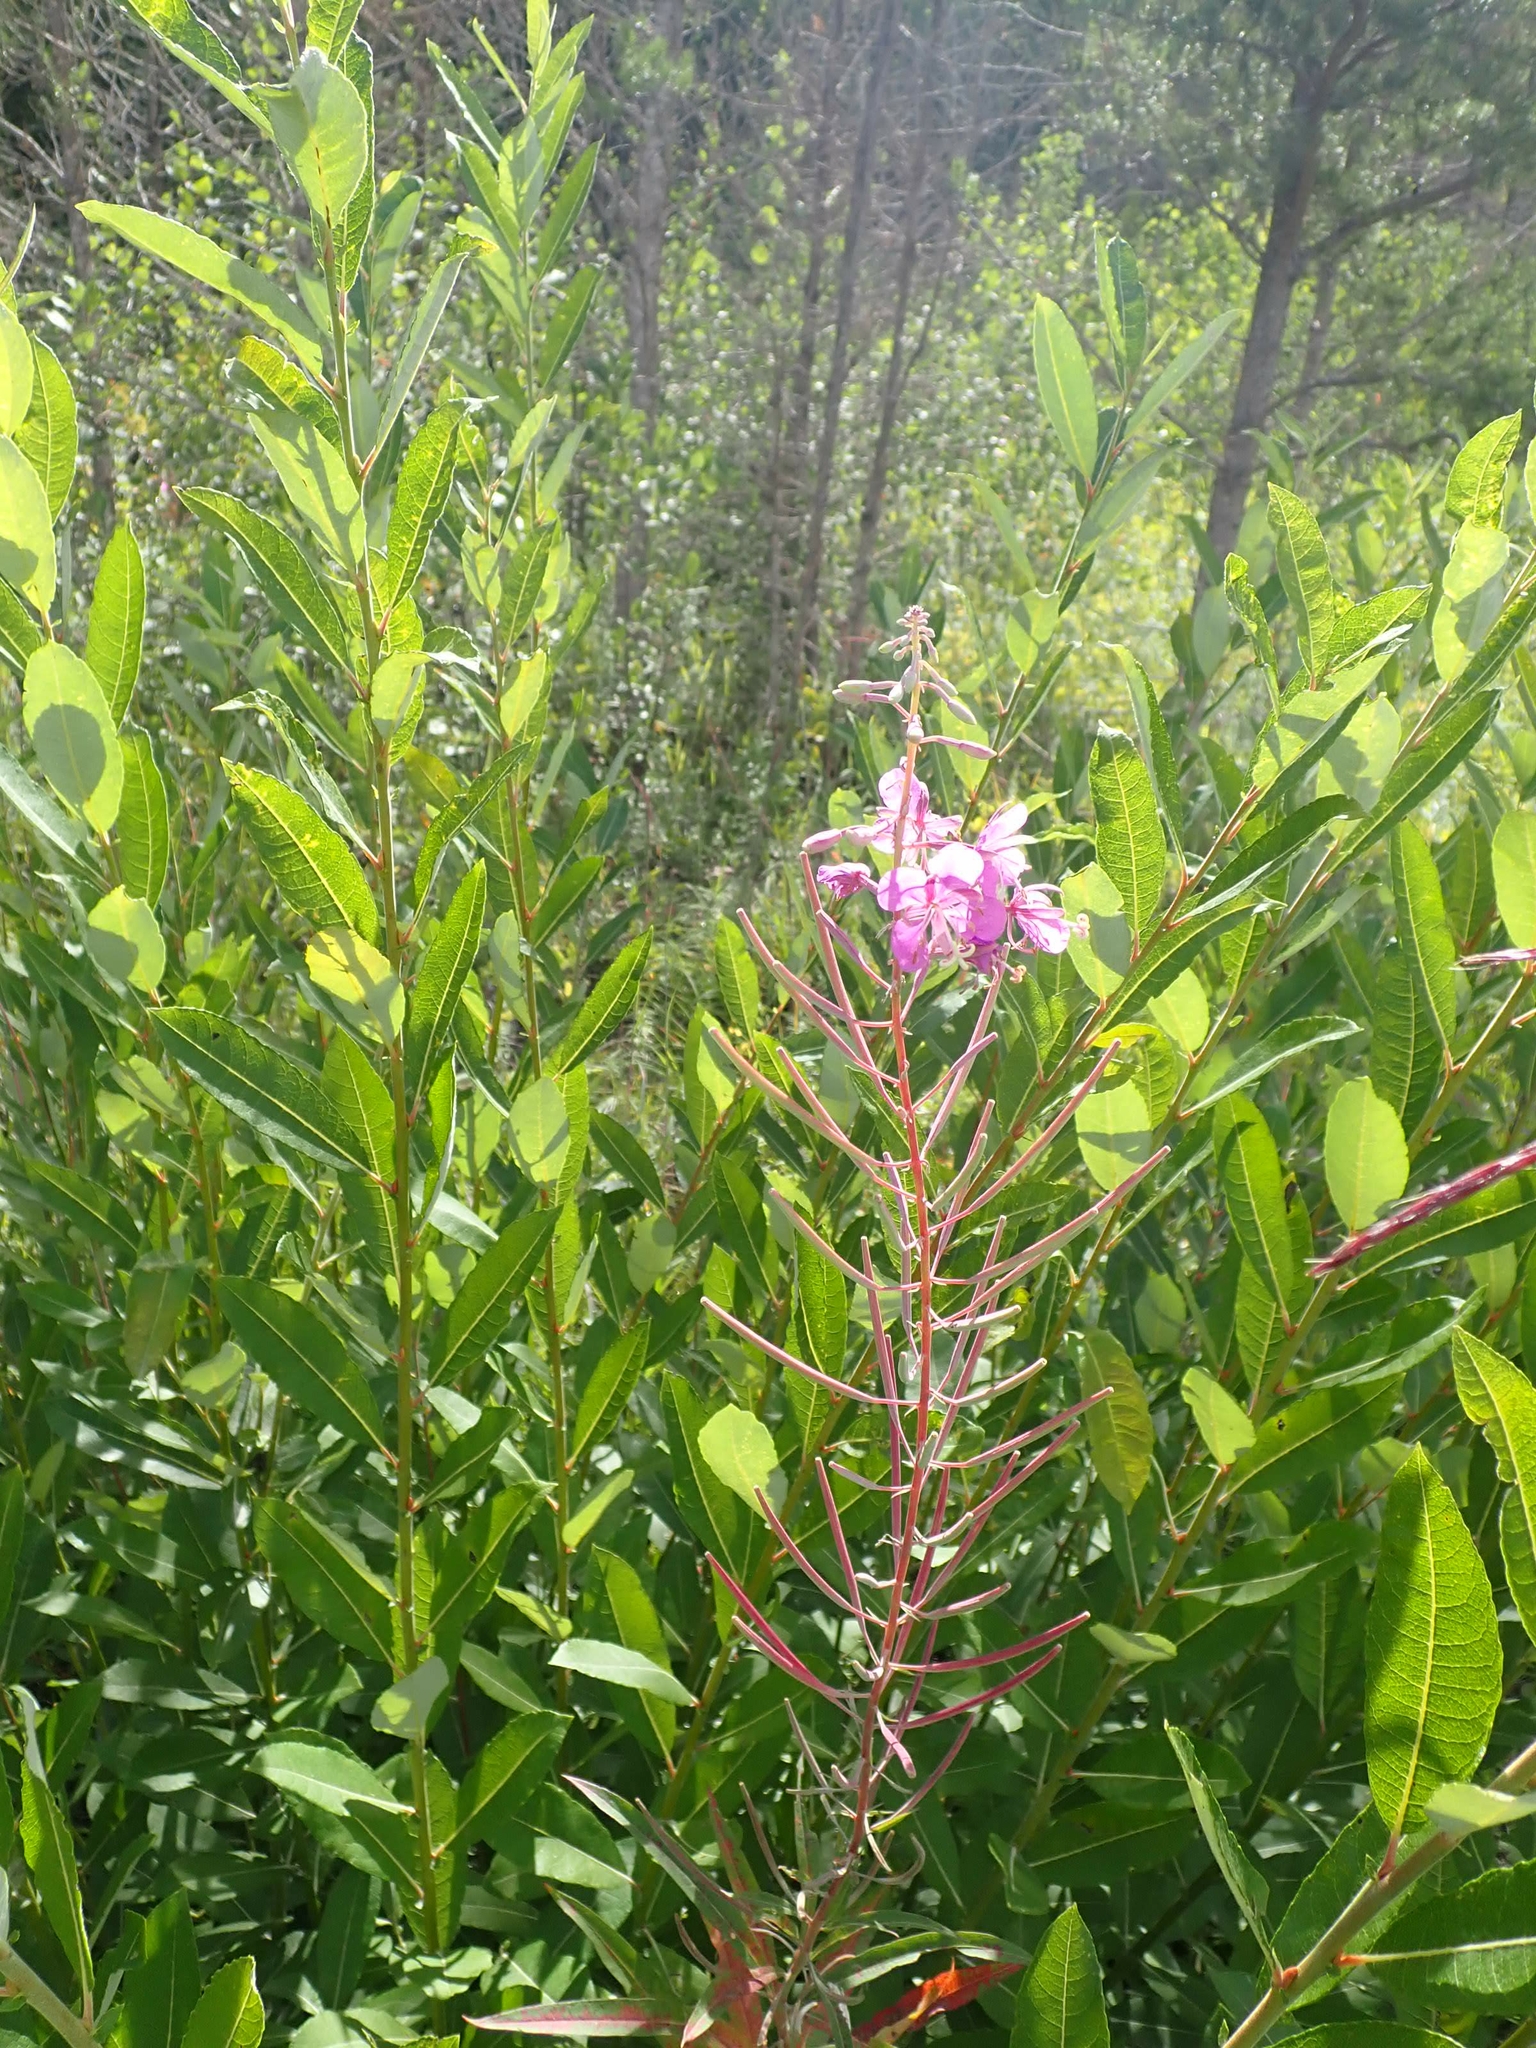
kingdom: Plantae
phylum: Tracheophyta
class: Magnoliopsida
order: Myrtales
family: Onagraceae
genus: Chamaenerion
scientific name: Chamaenerion angustifolium
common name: Fireweed
